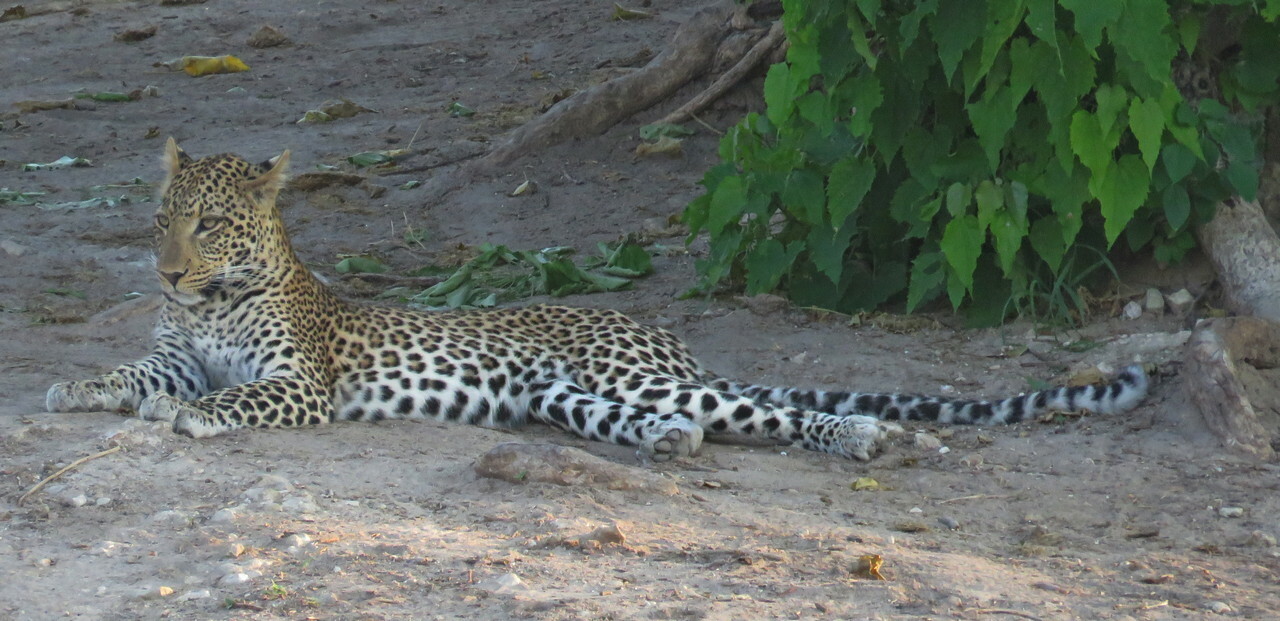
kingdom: Animalia
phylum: Chordata
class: Mammalia
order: Carnivora
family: Felidae
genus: Panthera
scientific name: Panthera pardus
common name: Leopard
